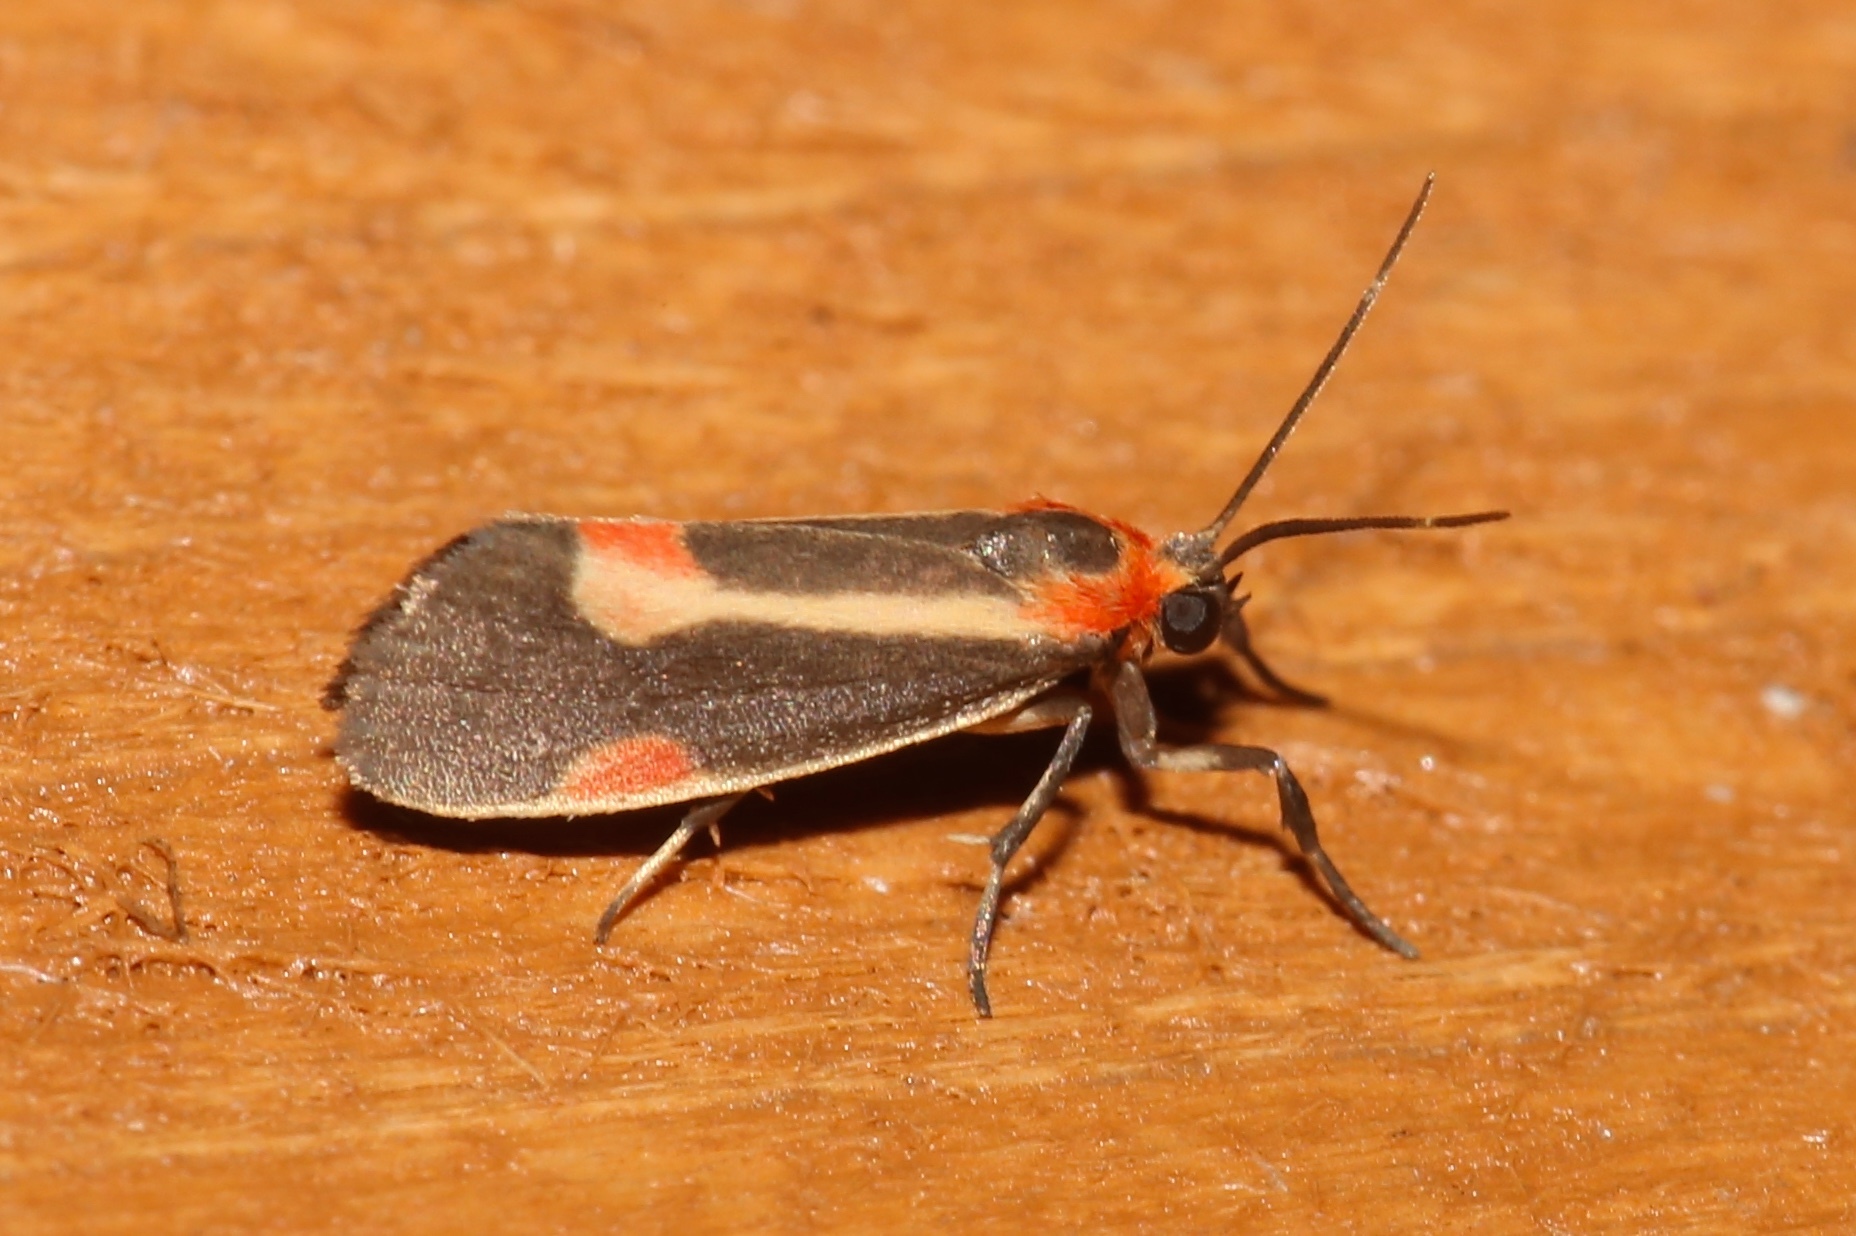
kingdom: Animalia
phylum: Arthropoda
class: Insecta
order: Lepidoptera
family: Erebidae
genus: Cisthene
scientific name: Cisthene packardii
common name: Packard's lichen moth
